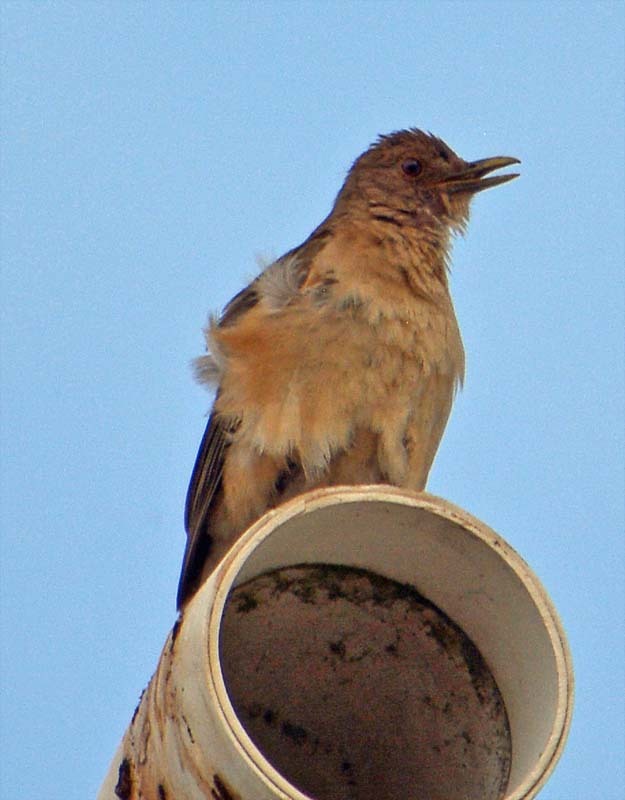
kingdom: Animalia
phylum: Chordata
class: Aves
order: Passeriformes
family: Turdidae
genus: Turdus
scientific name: Turdus grayi
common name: Clay-colored thrush
